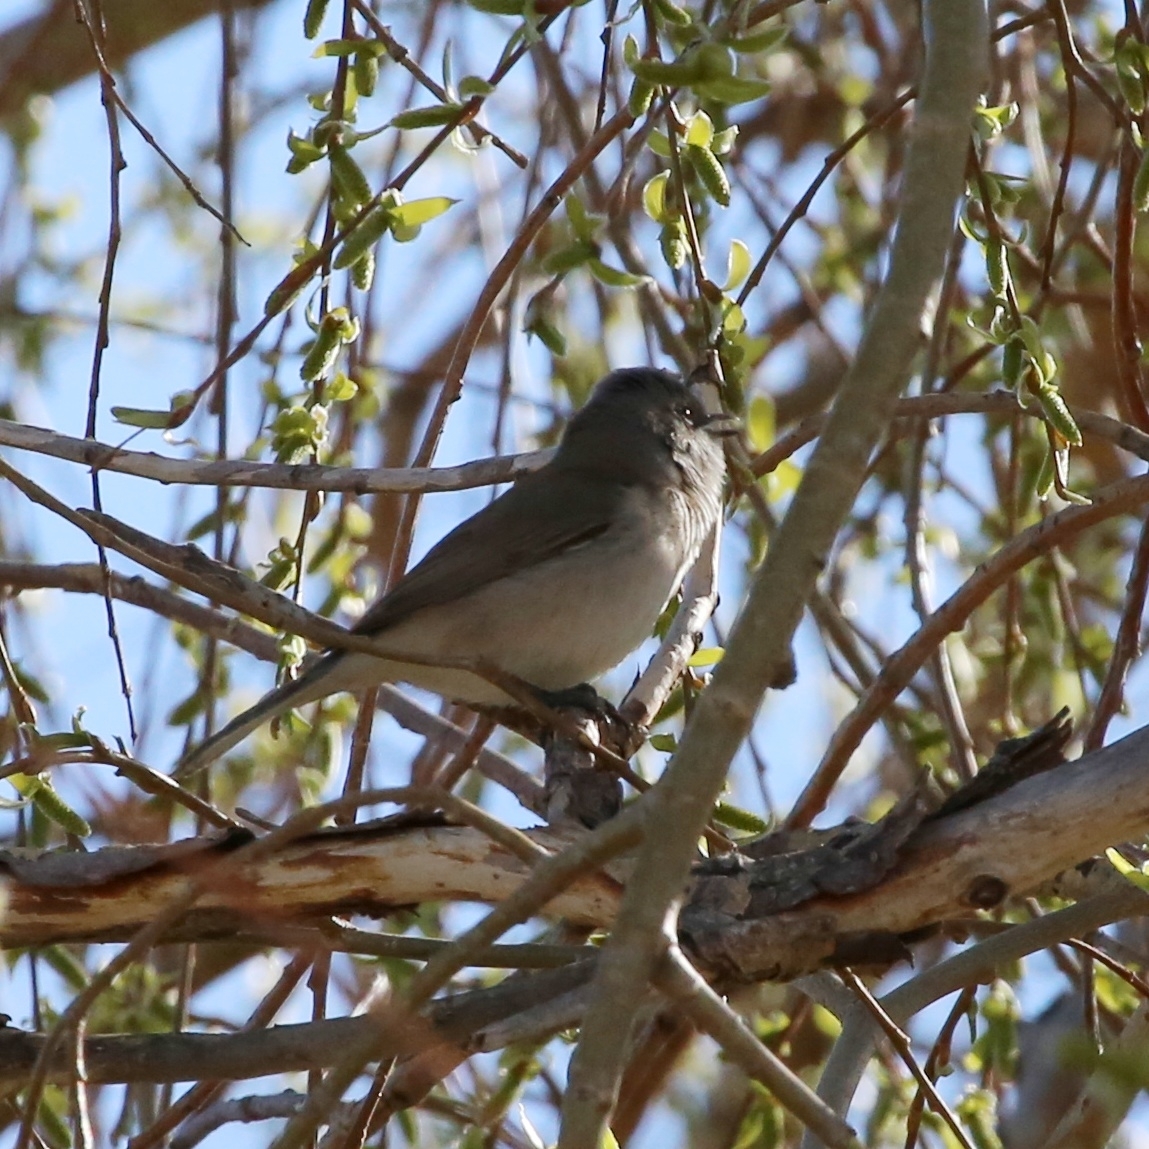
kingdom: Animalia
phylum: Chordata
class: Aves
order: Passeriformes
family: Sylviidae
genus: Sylvia
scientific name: Sylvia curruca
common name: Lesser whitethroat
